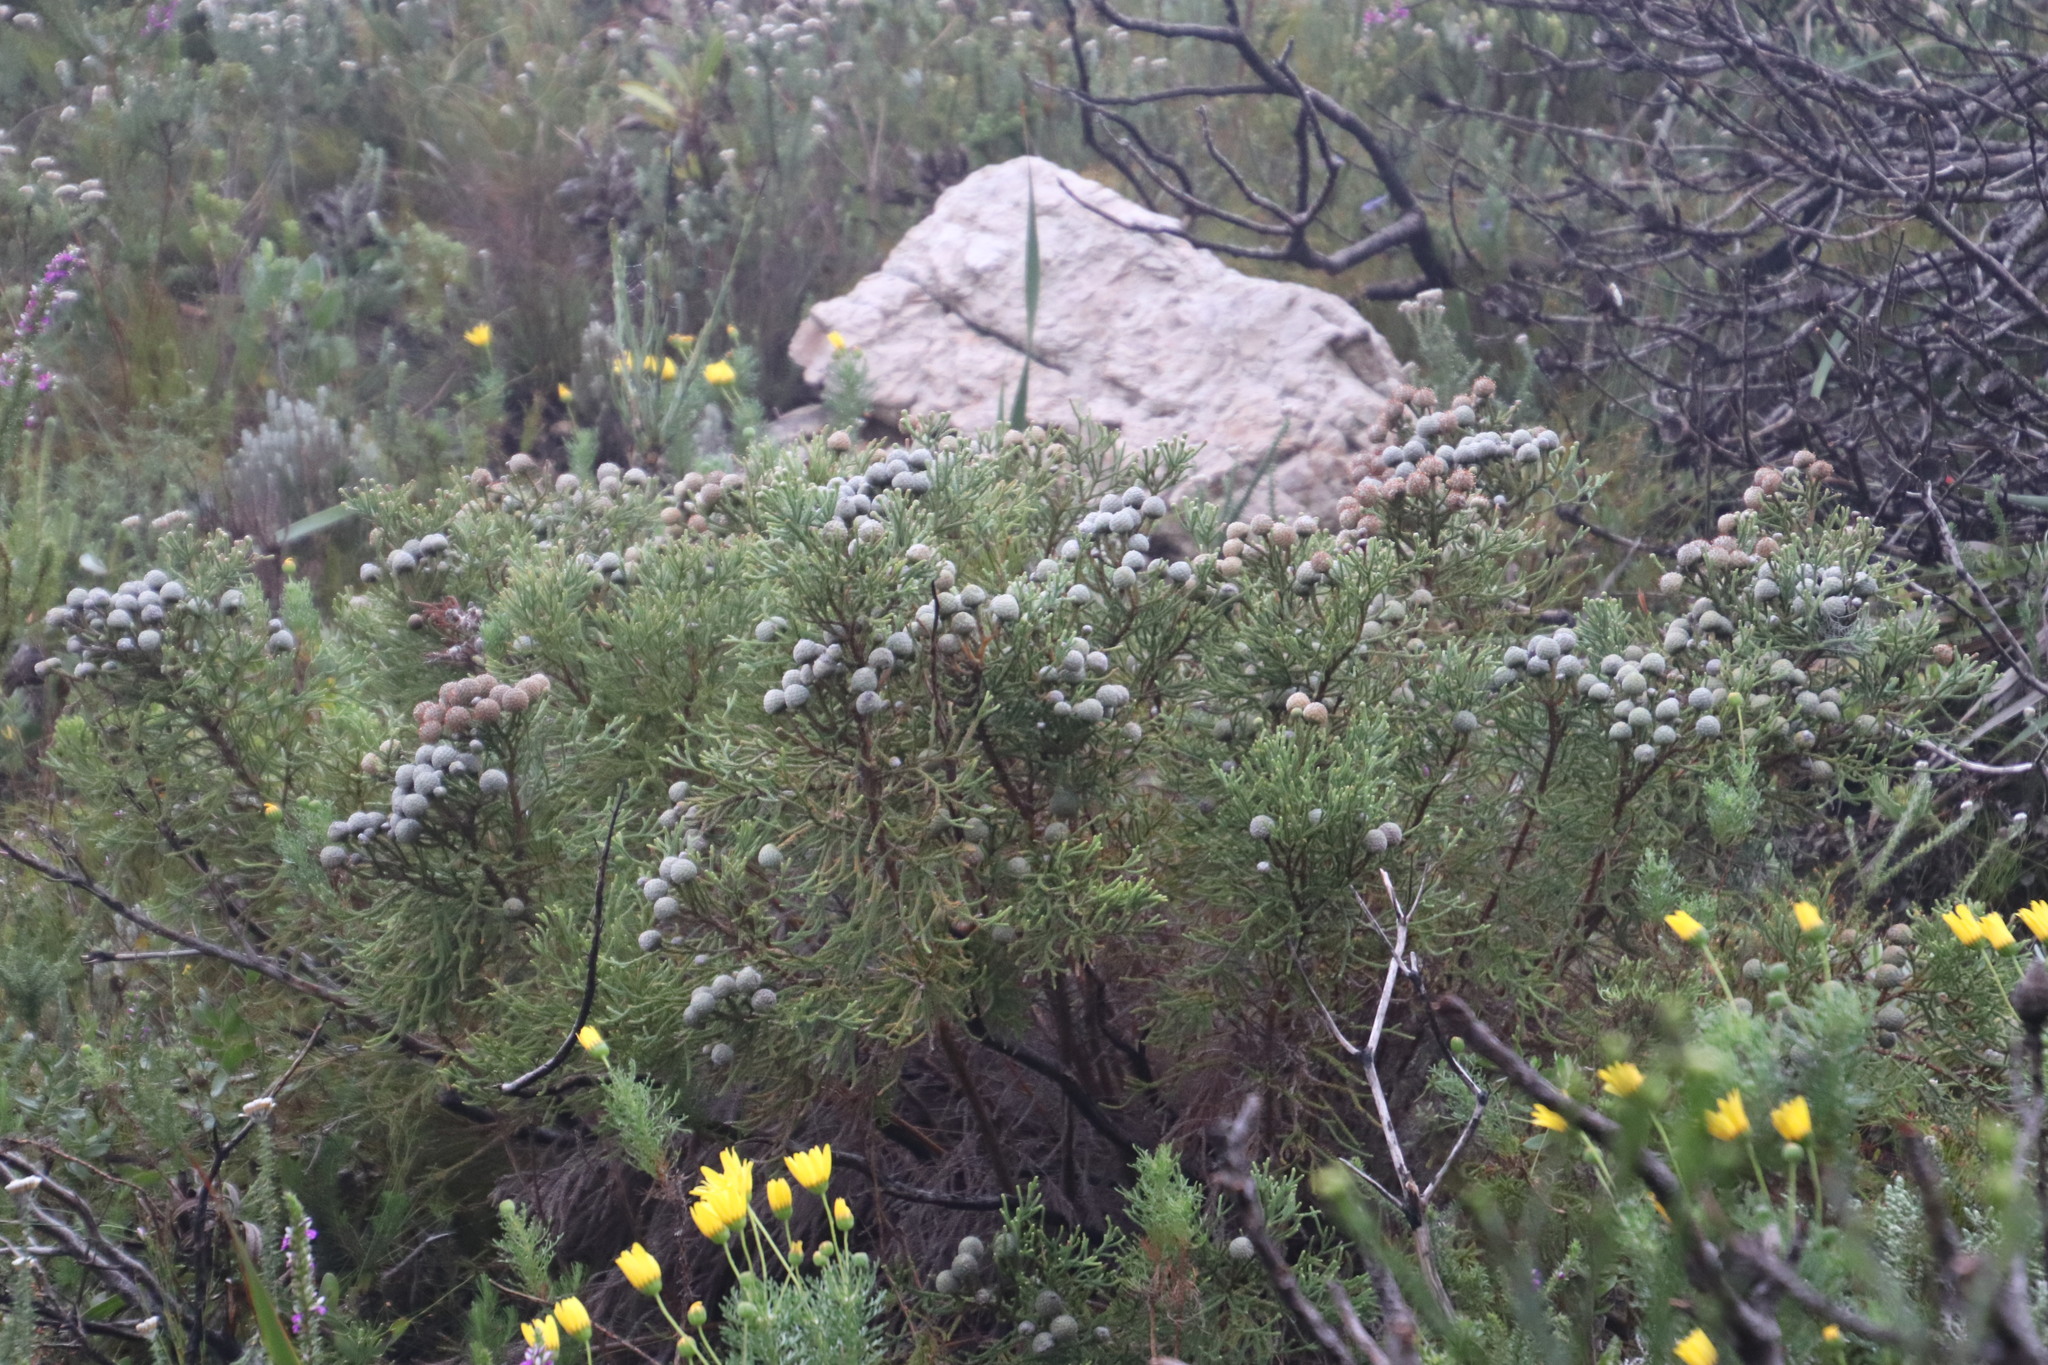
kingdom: Plantae
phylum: Tracheophyta
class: Magnoliopsida
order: Bruniales
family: Bruniaceae
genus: Brunia
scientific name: Brunia noduliflora
